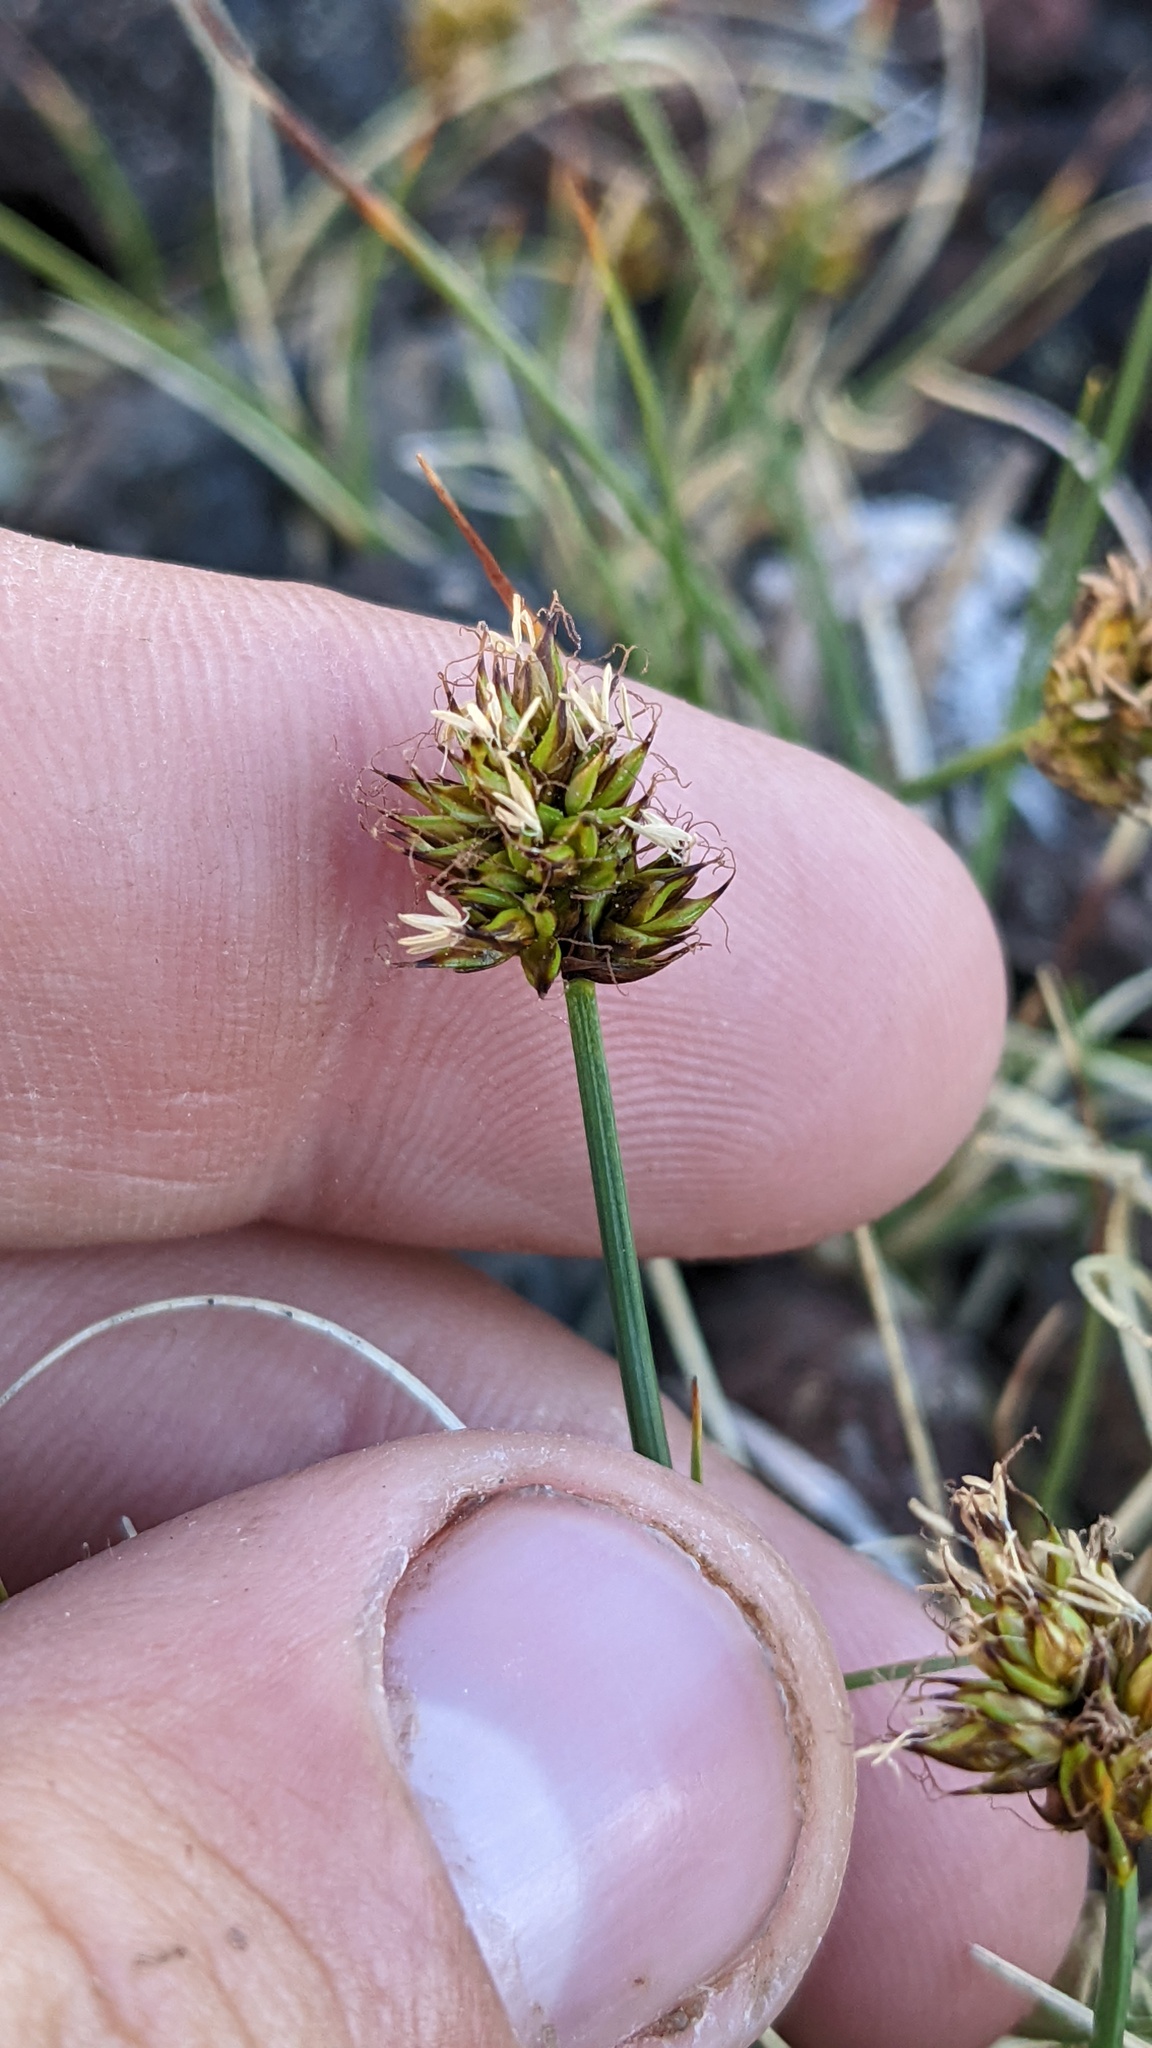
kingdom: Plantae
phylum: Tracheophyta
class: Liliopsida
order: Poales
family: Cyperaceae
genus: Carex
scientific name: Carex incurviformis
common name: Coastal sand sedge
